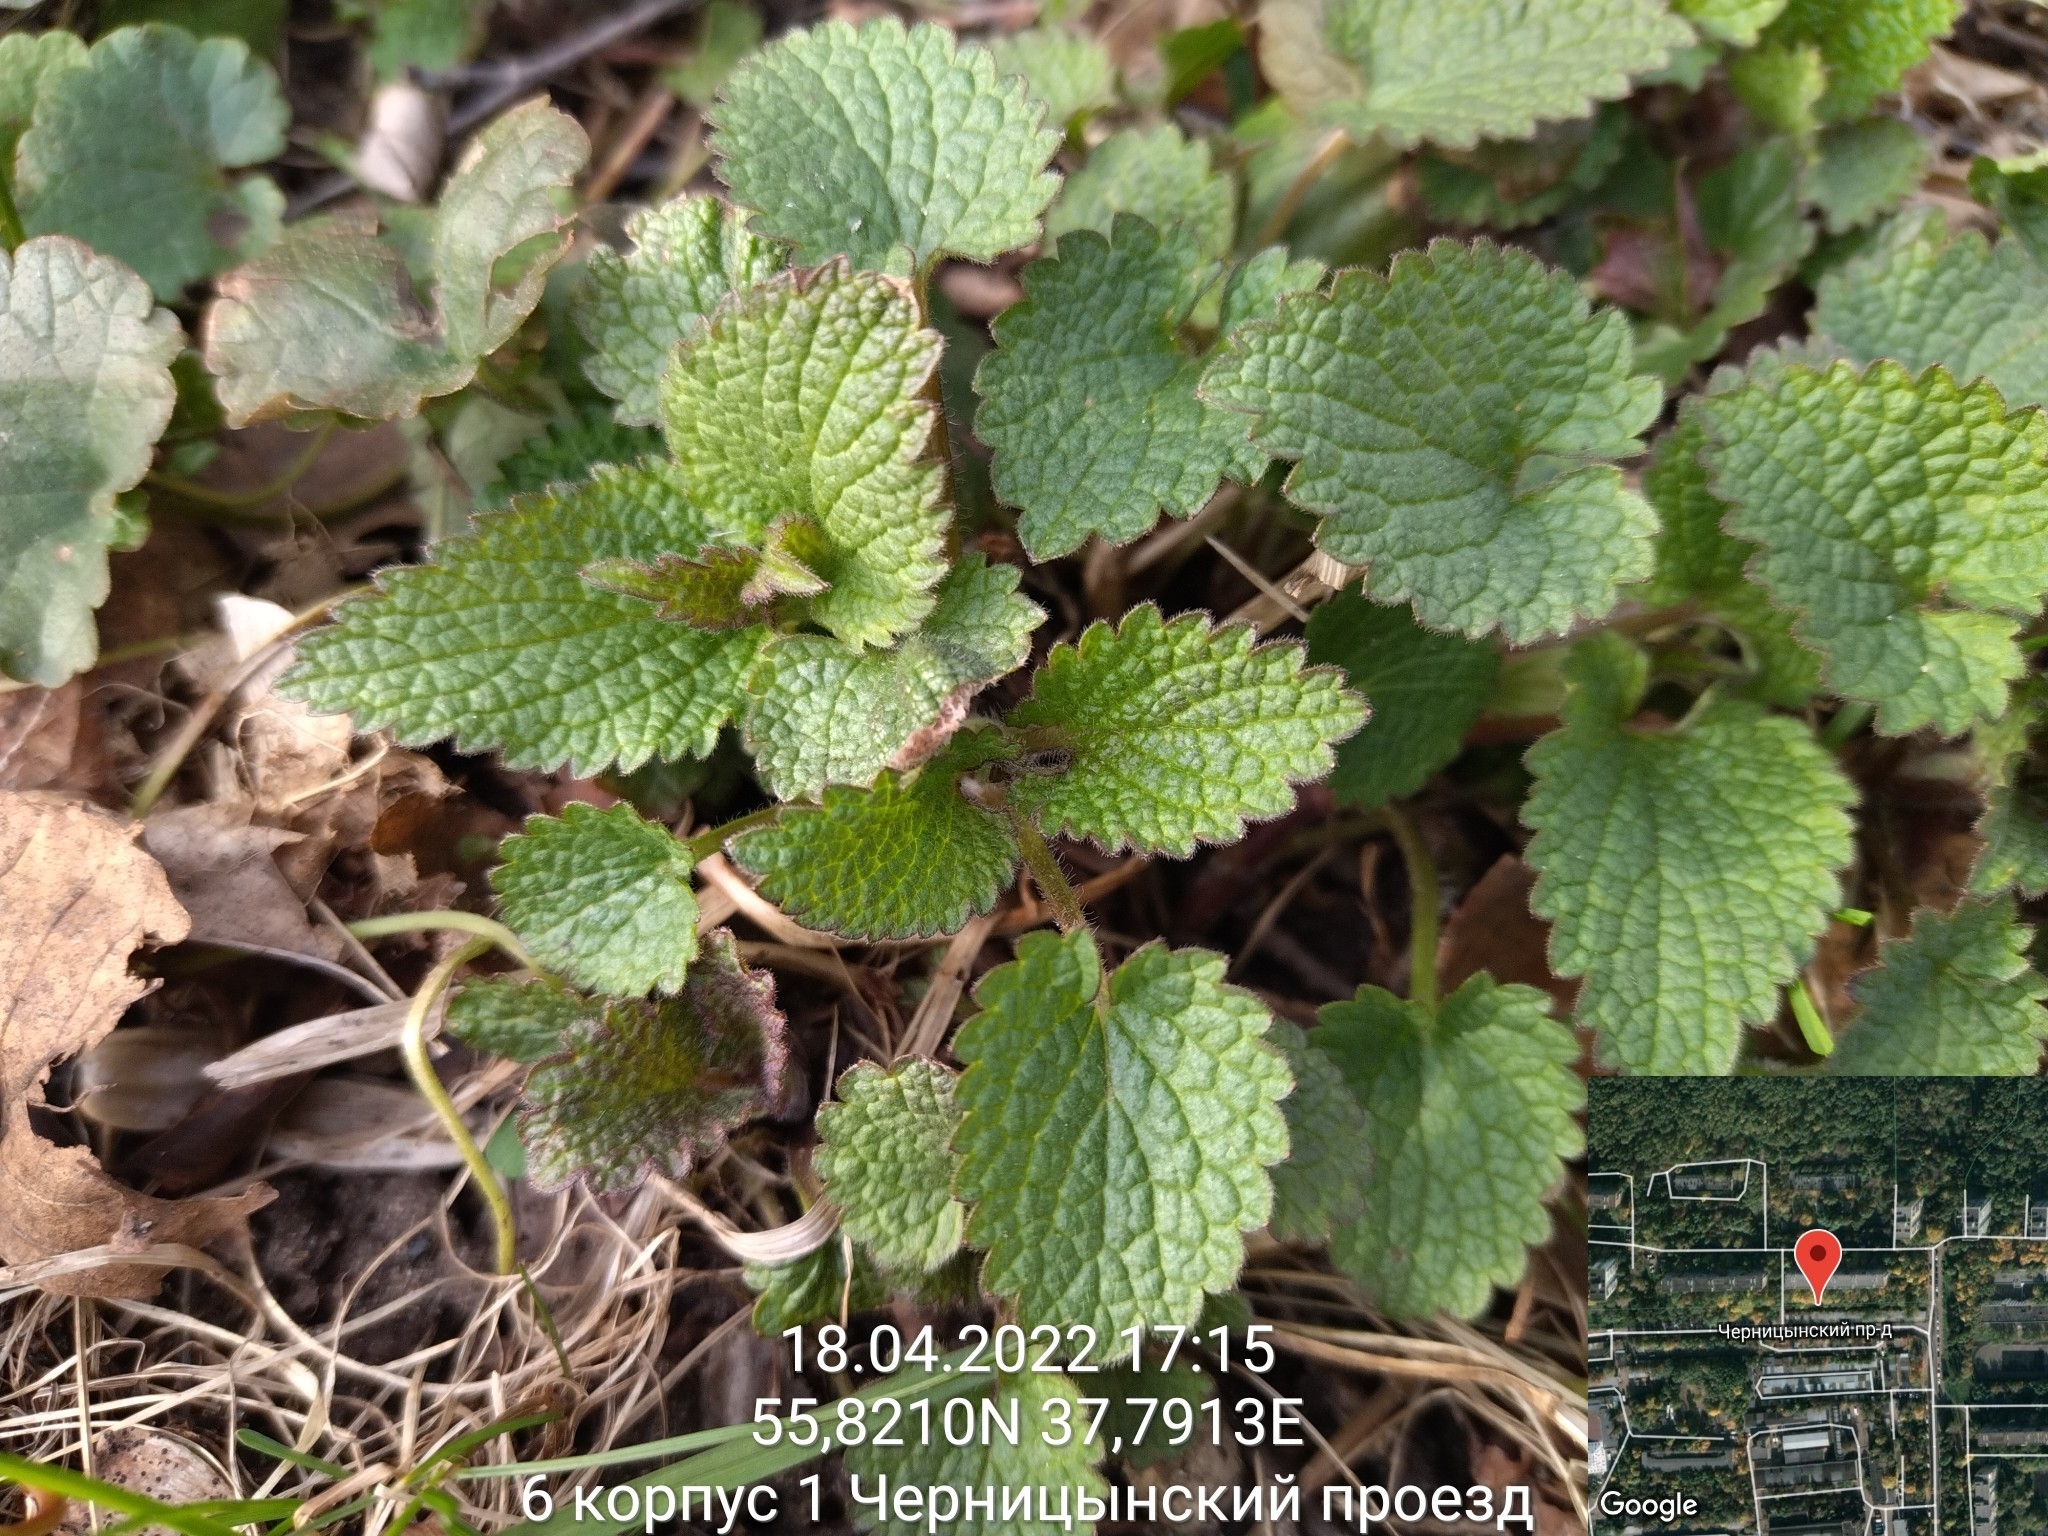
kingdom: Plantae
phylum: Tracheophyta
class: Magnoliopsida
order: Lamiales
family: Lamiaceae
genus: Lamium
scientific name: Lamium album
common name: White dead-nettle
